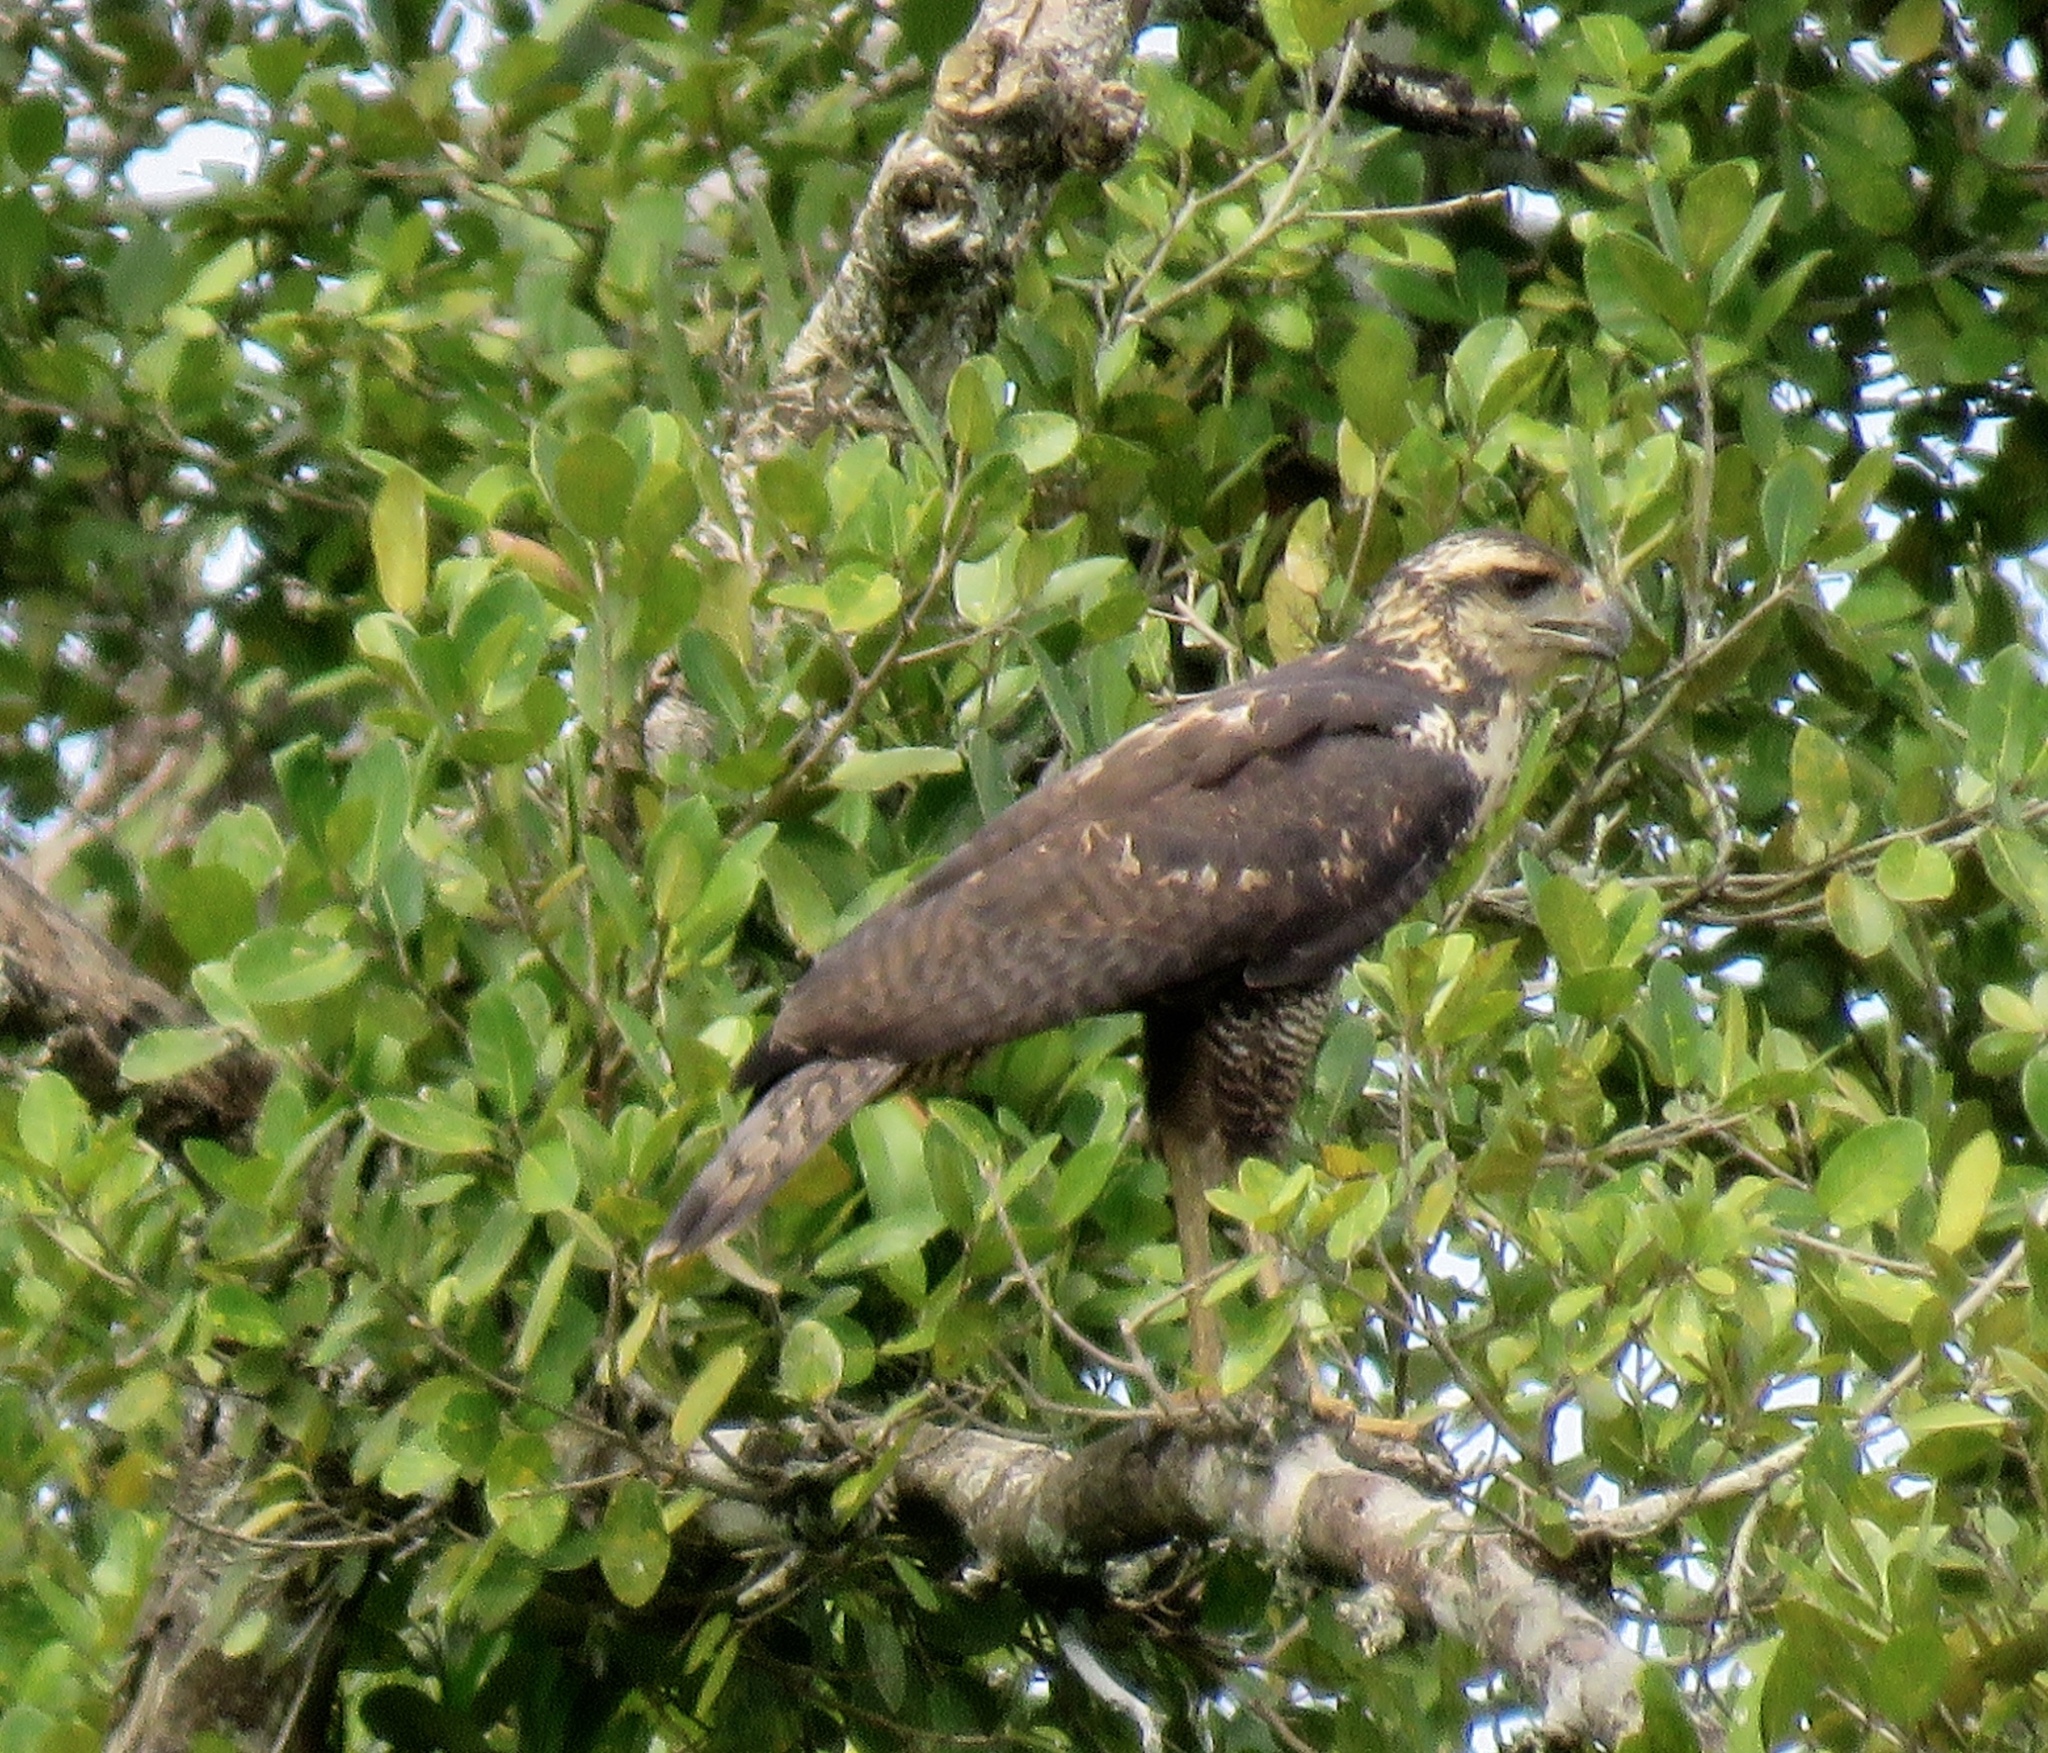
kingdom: Animalia
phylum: Chordata
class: Aves
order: Accipitriformes
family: Accipitridae
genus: Buteogallus
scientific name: Buteogallus urubitinga
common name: Great black hawk
